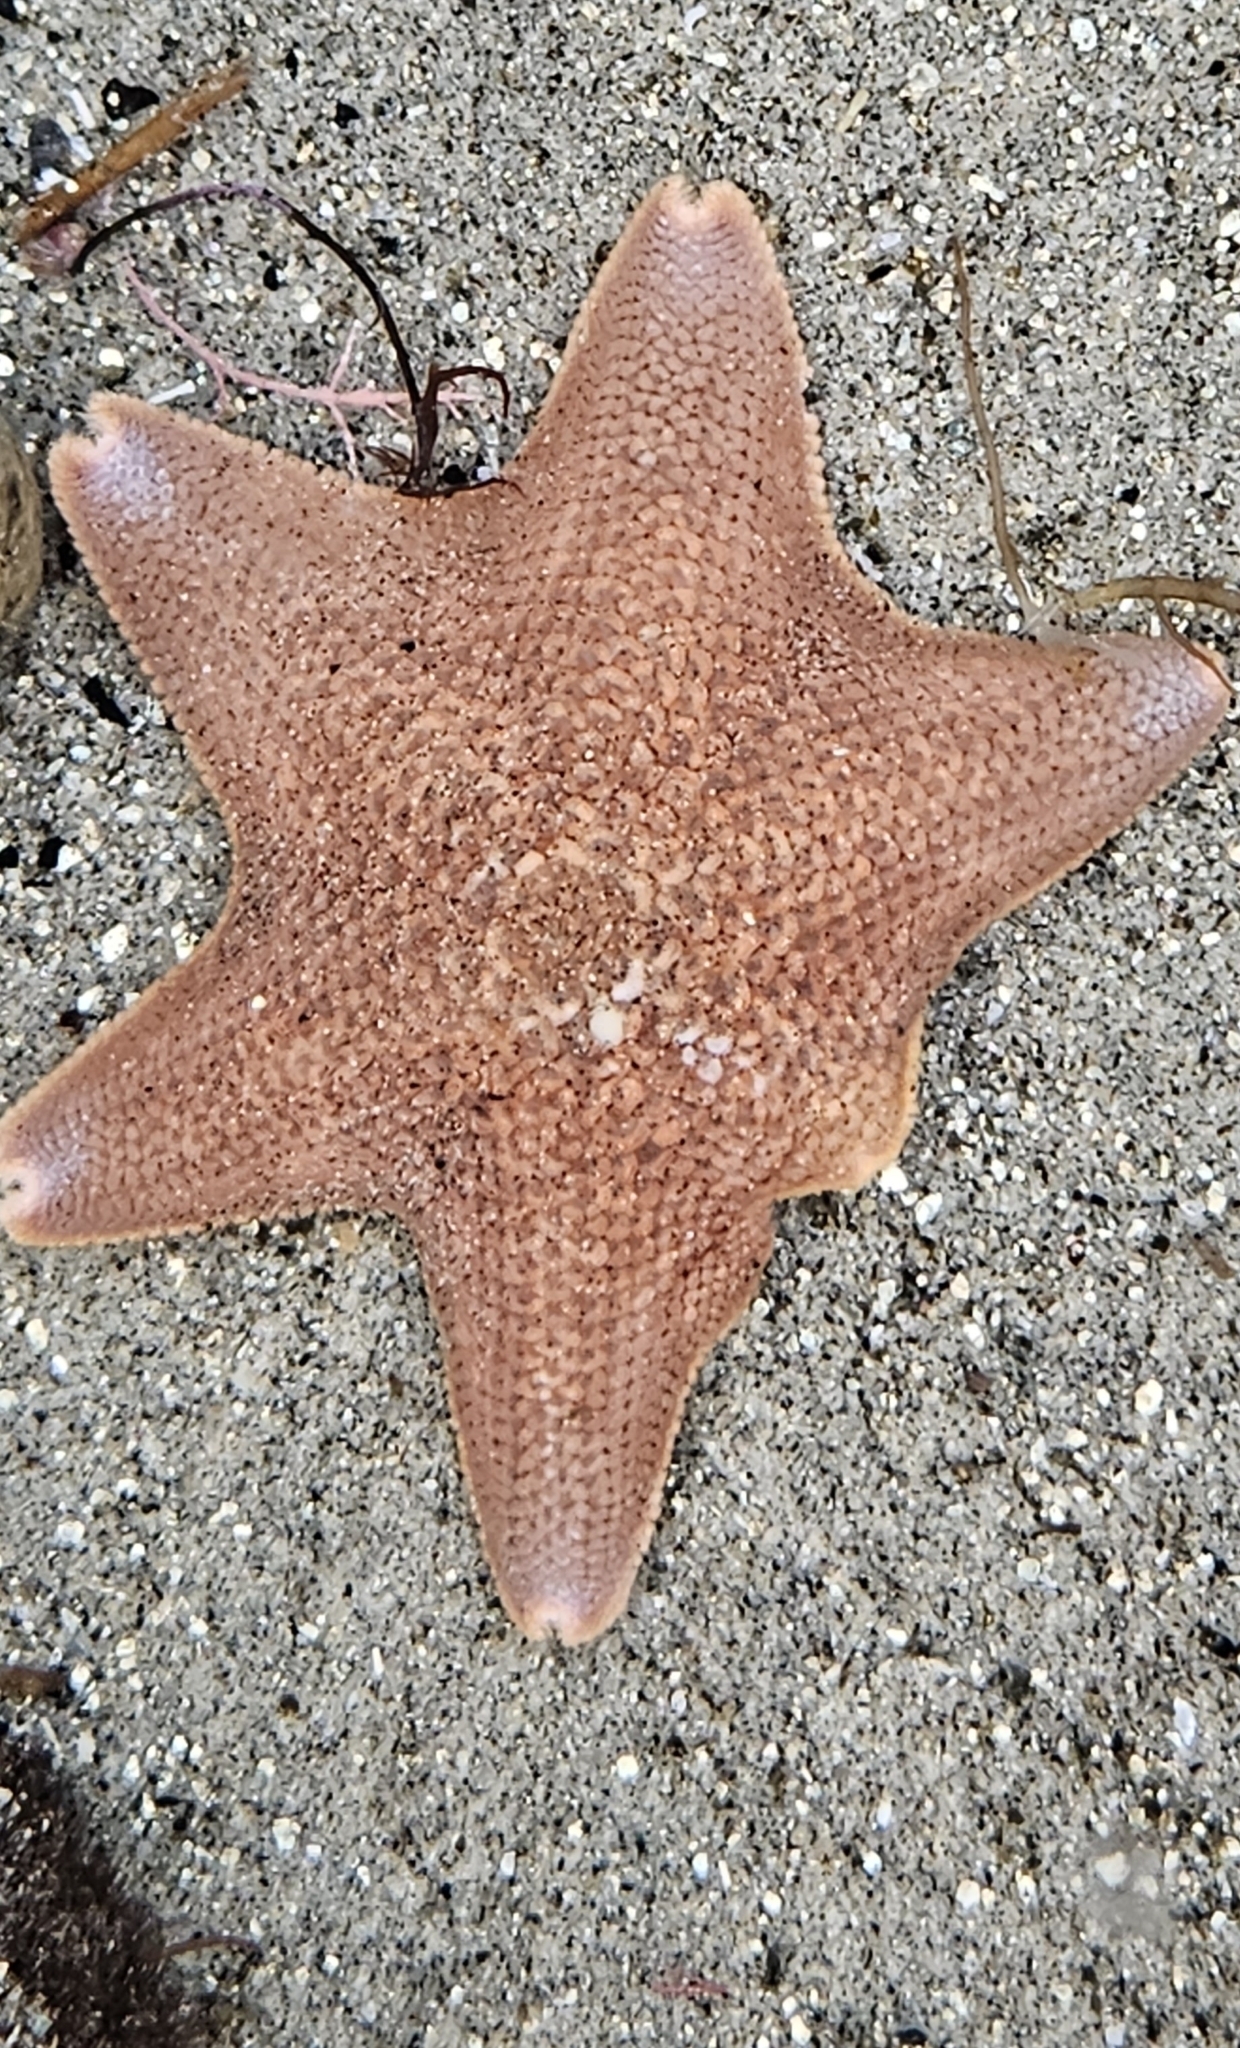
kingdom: Animalia
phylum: Echinodermata
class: Asteroidea
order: Valvatida
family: Asterinidae
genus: Patiria
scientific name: Patiria miniata
